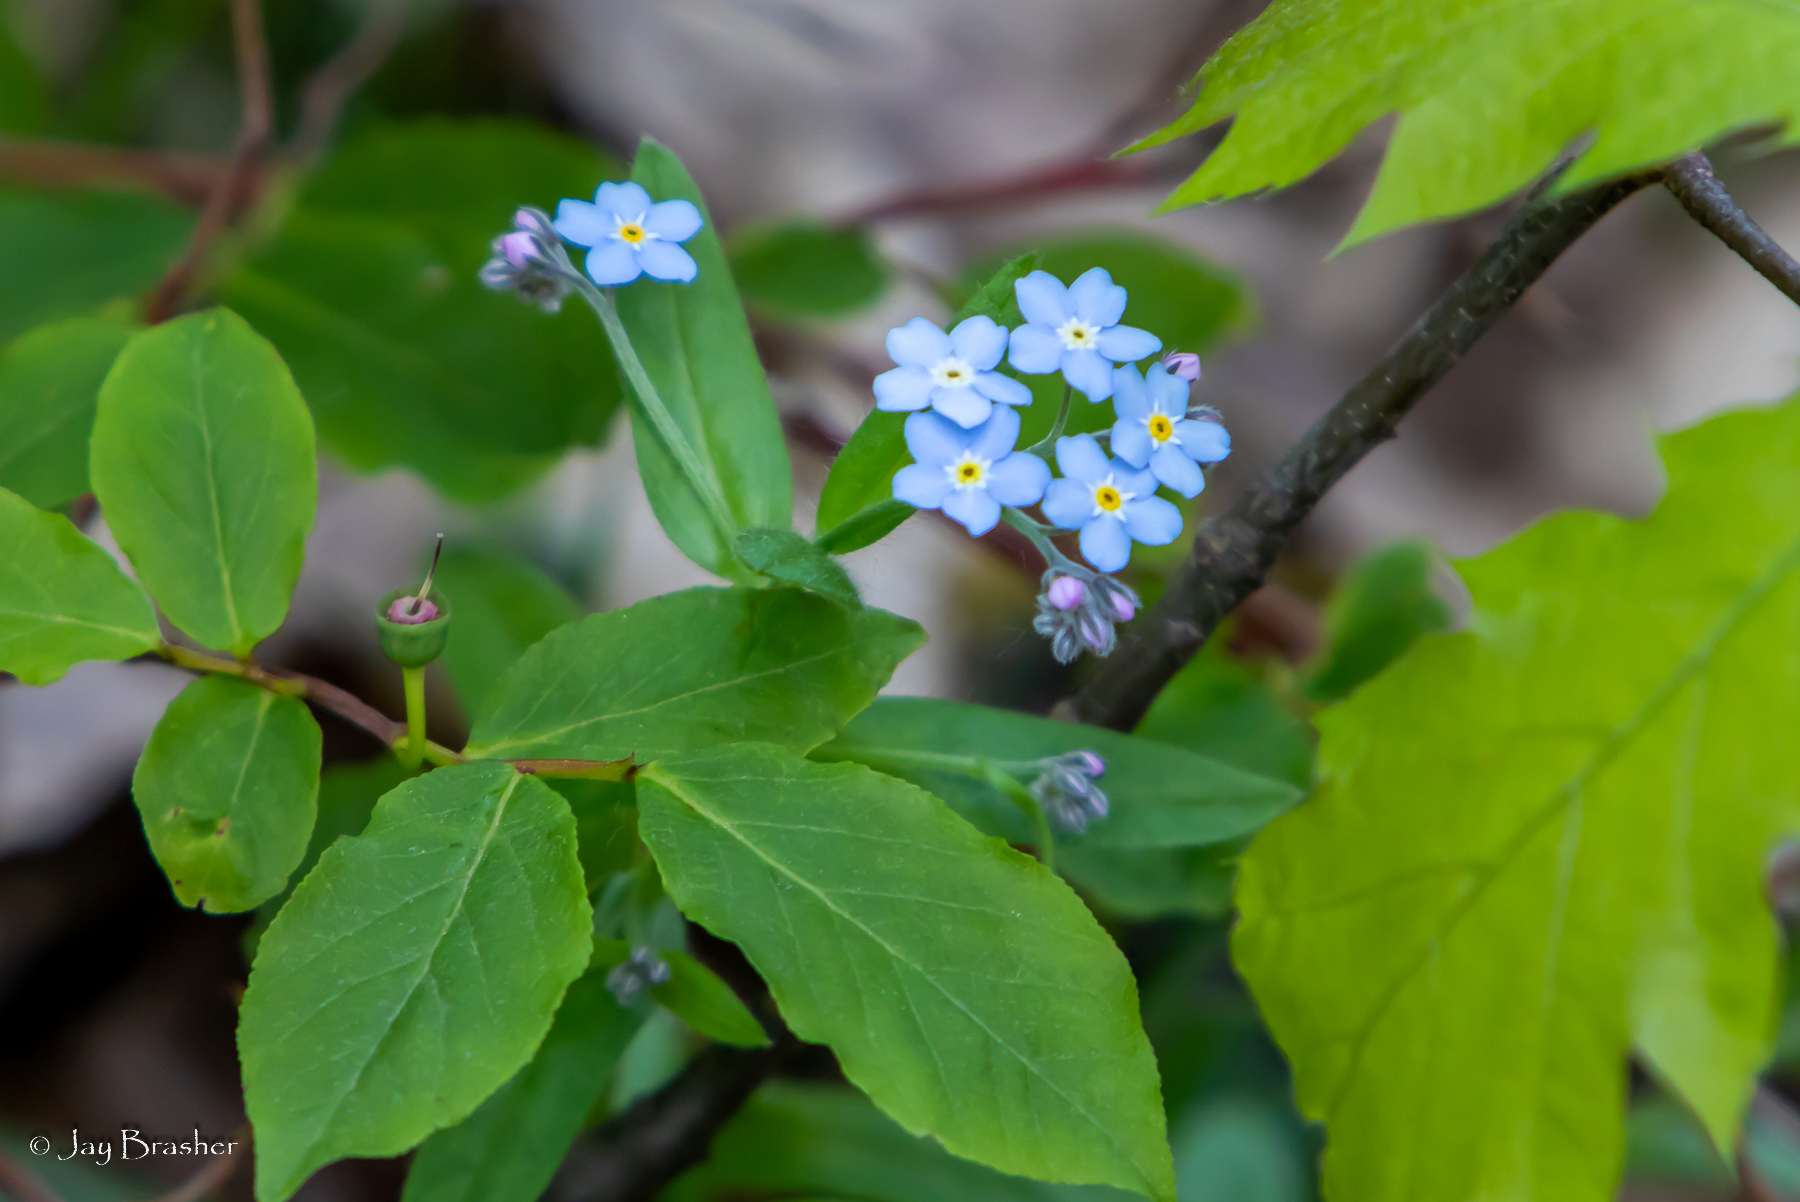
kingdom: Plantae
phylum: Tracheophyta
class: Magnoliopsida
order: Boraginales
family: Boraginaceae
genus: Myosotis
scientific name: Myosotis sylvatica
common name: Wood forget-me-not
